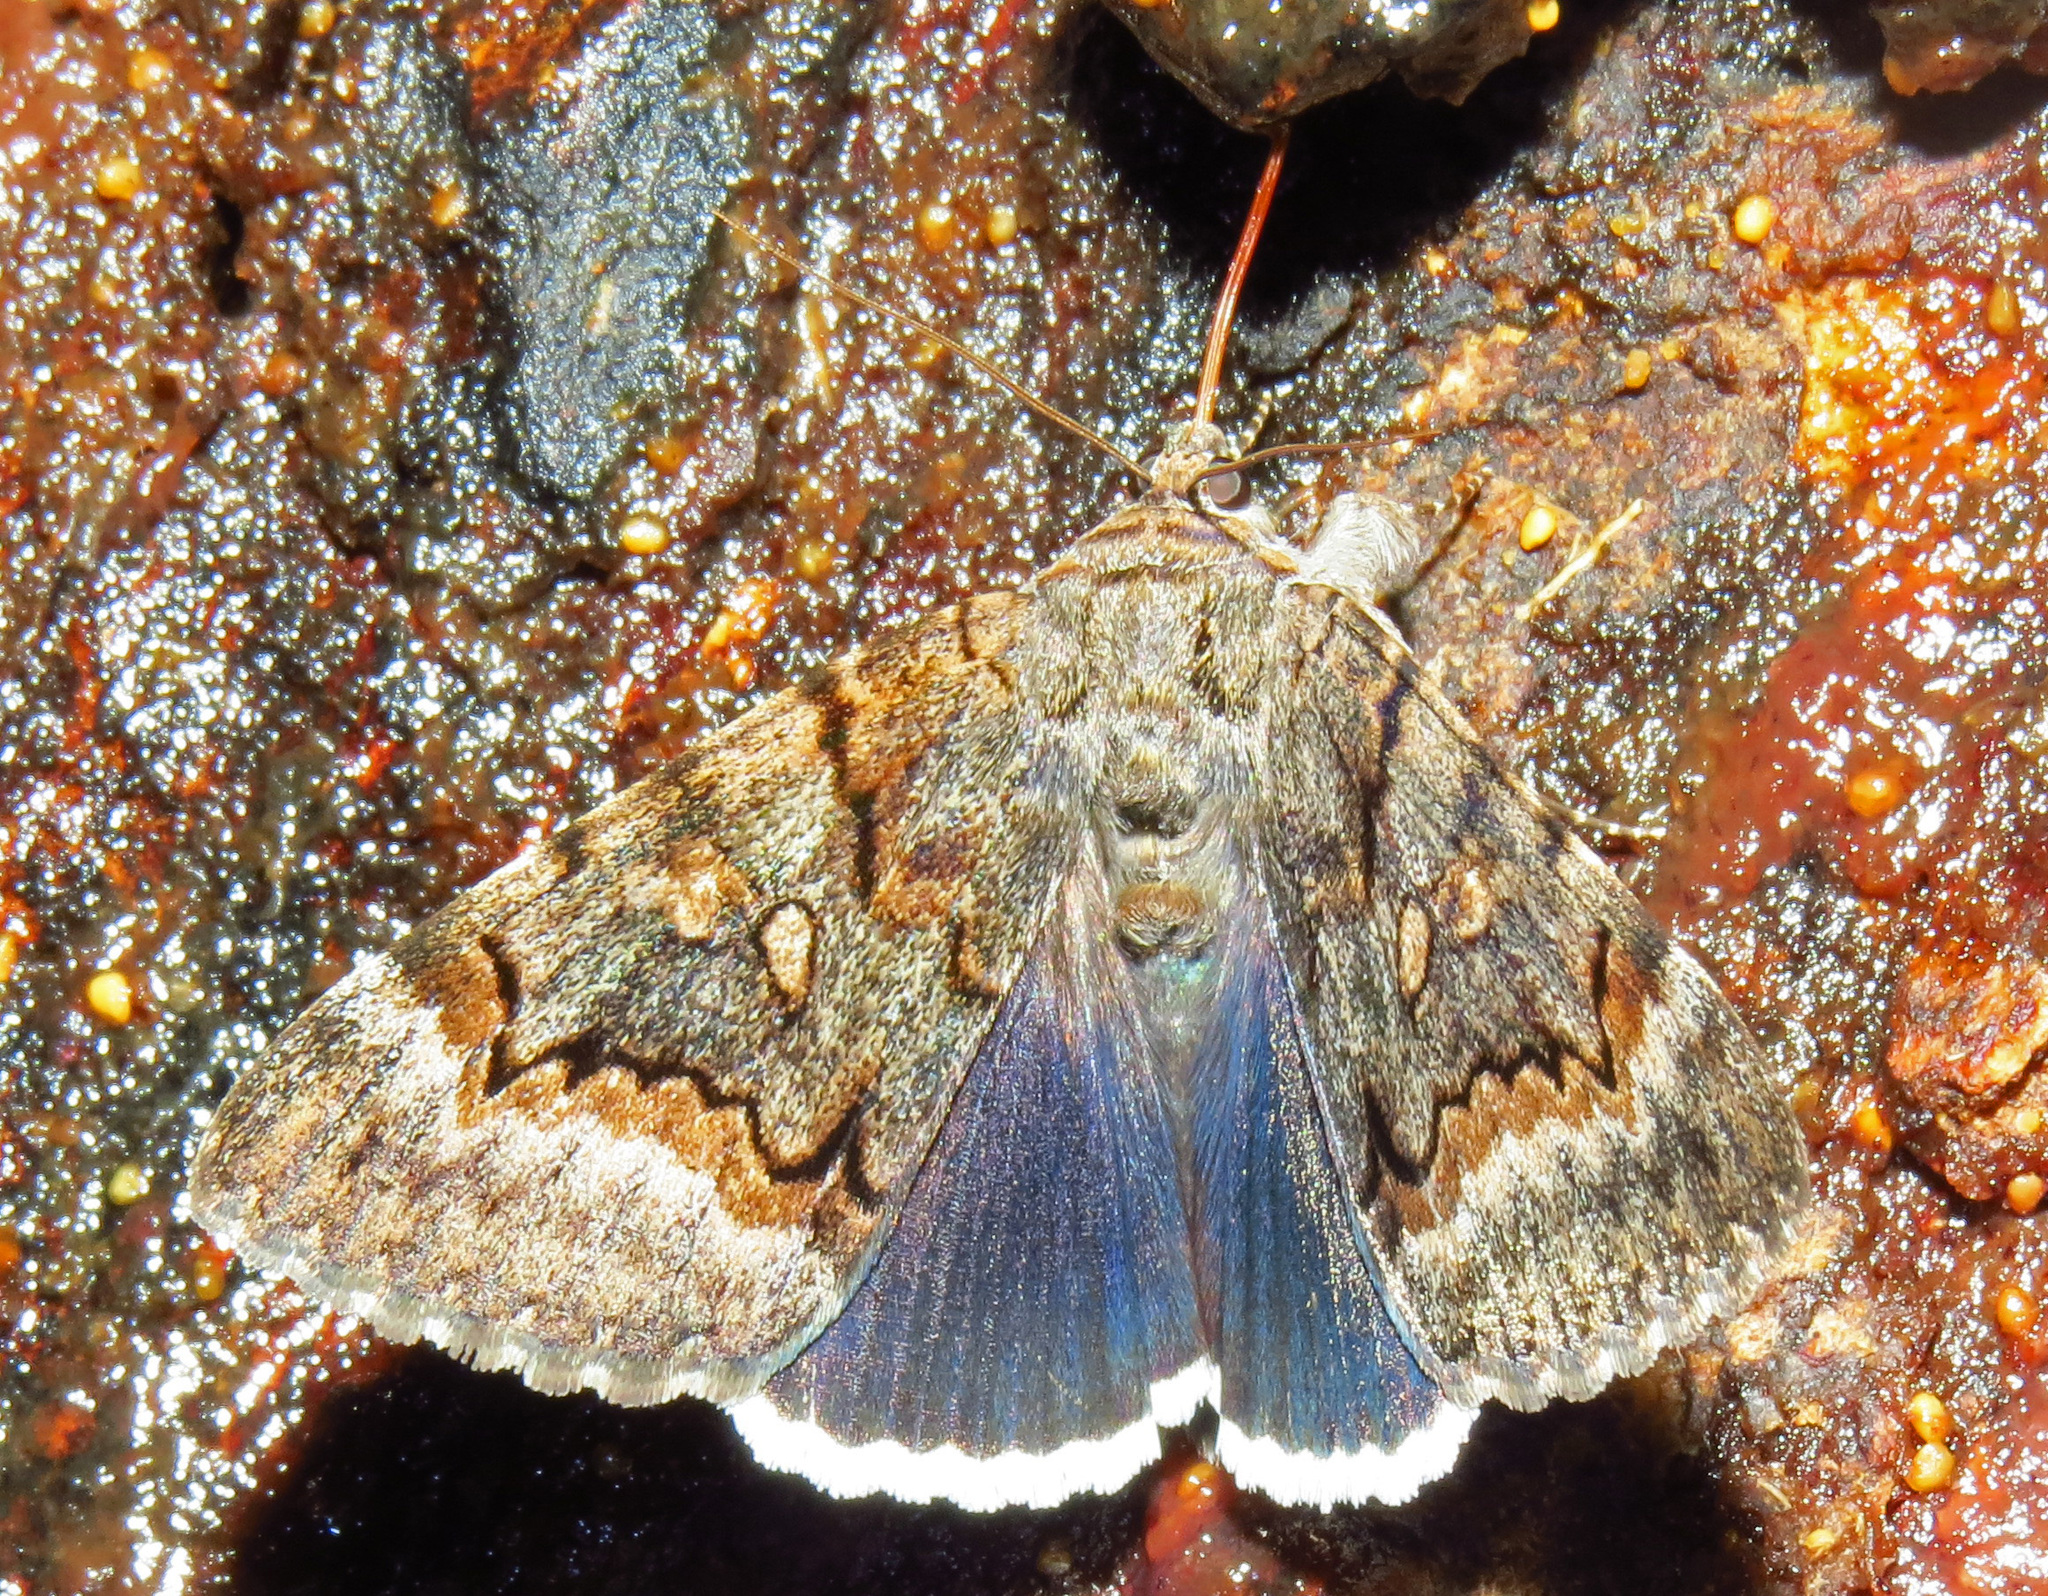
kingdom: Animalia
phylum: Arthropoda
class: Insecta
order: Lepidoptera
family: Erebidae
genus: Catocala
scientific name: Catocala epione
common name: Epione underwing
